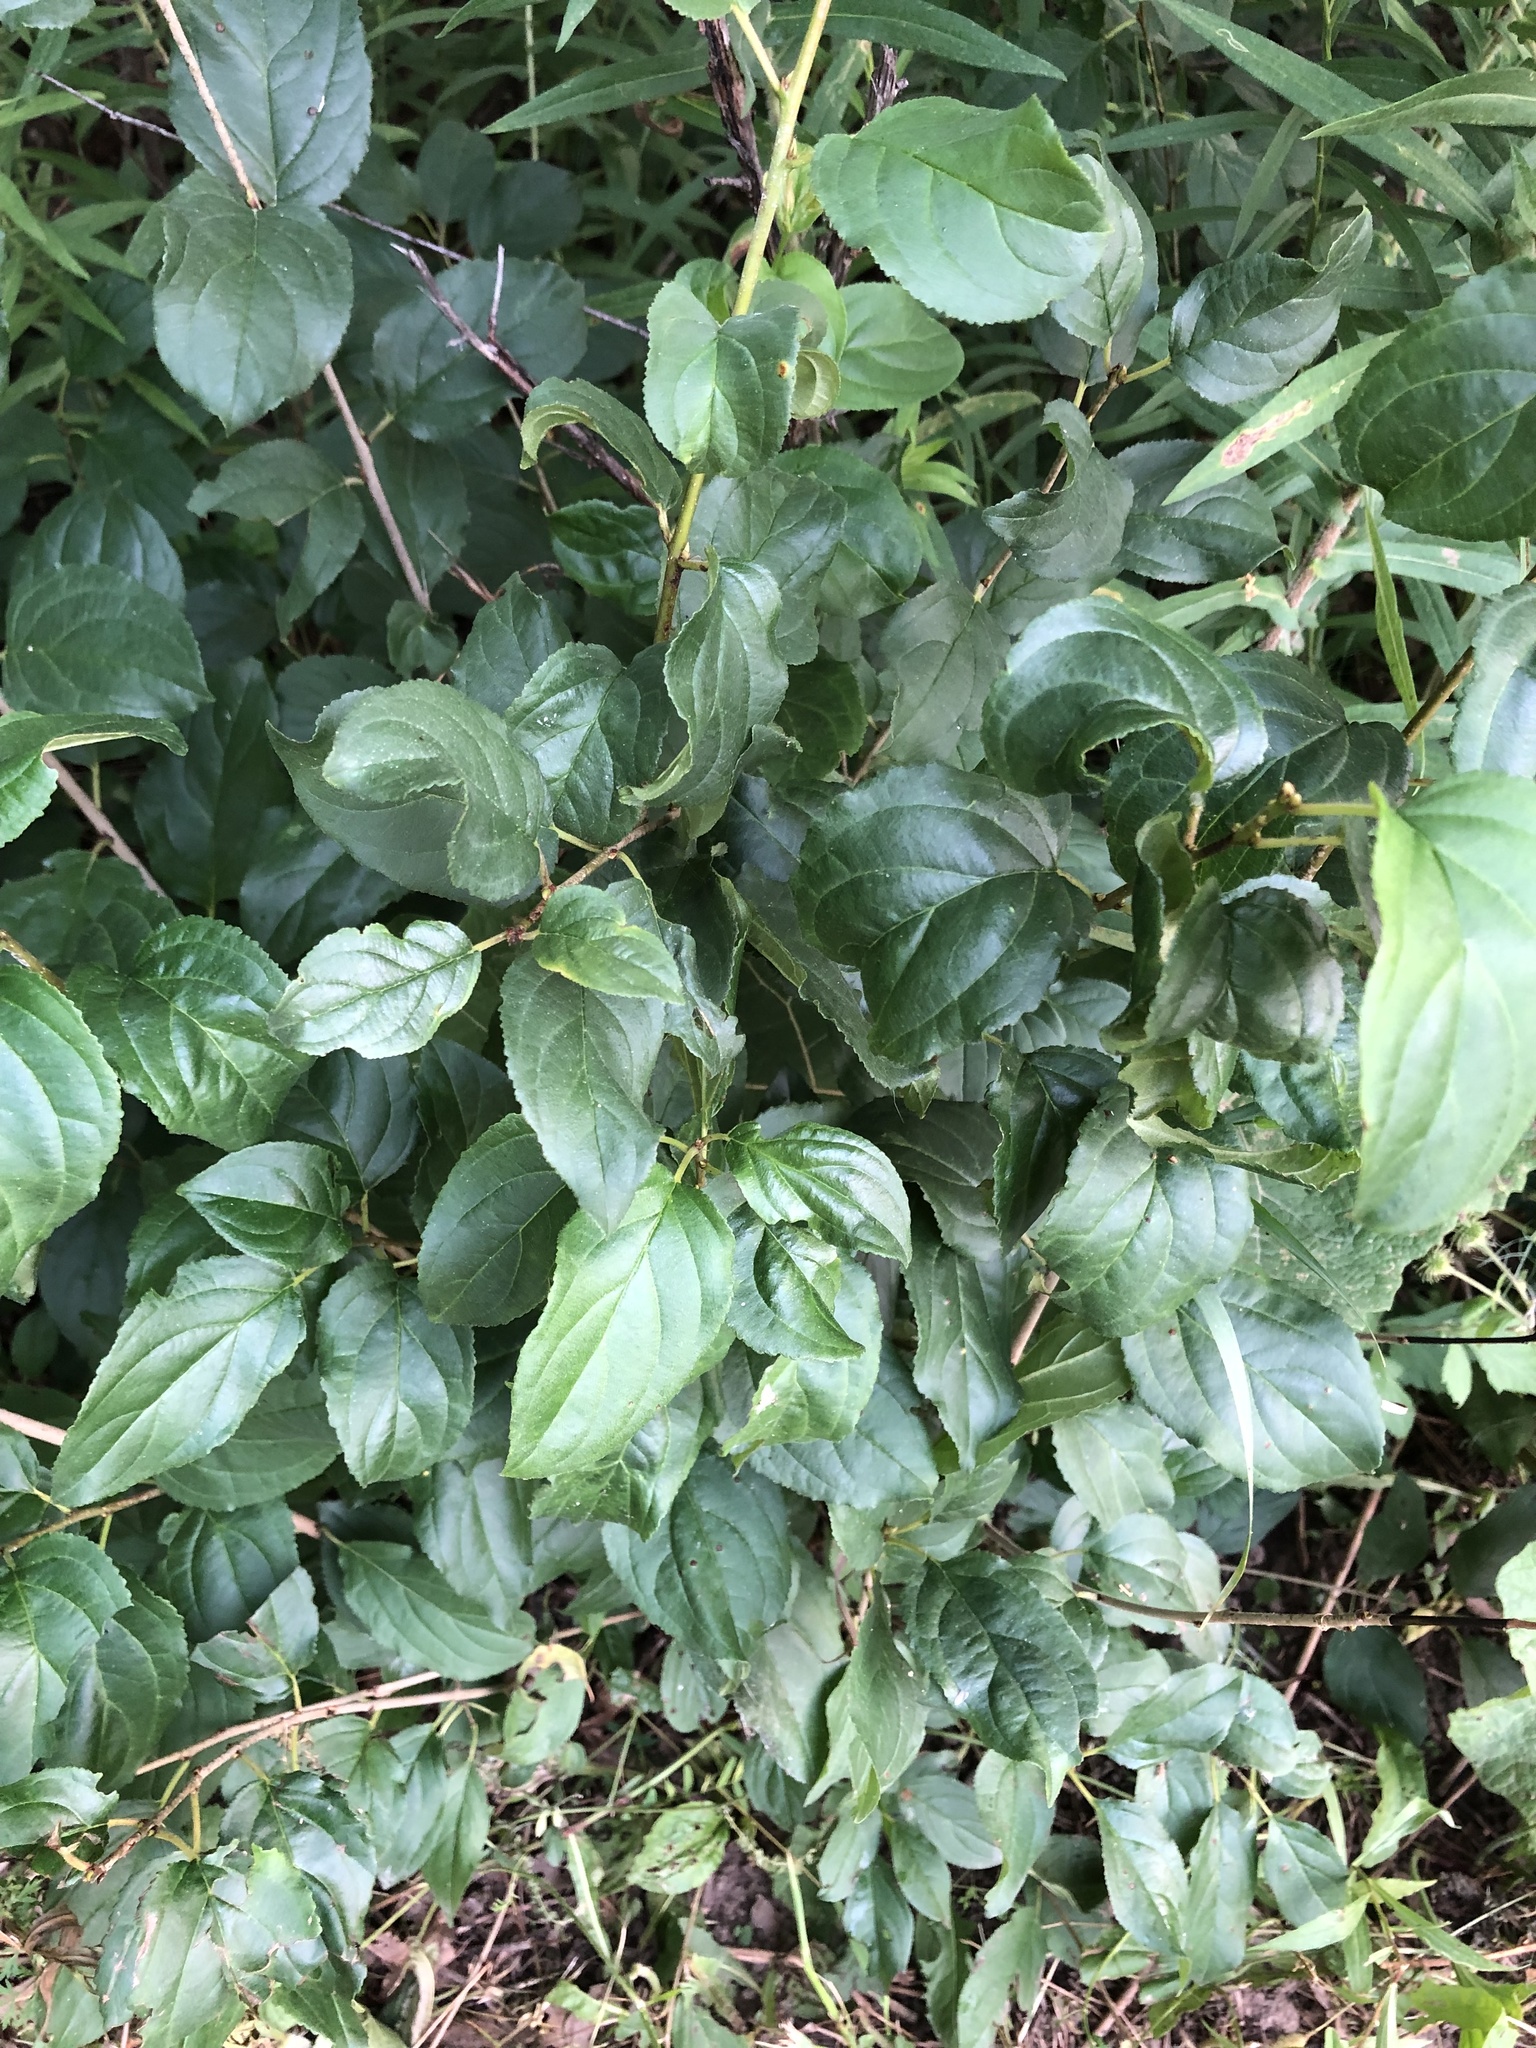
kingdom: Plantae
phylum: Tracheophyta
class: Magnoliopsida
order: Rosales
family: Rhamnaceae
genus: Rhamnus
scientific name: Rhamnus cathartica
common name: Common buckthorn
